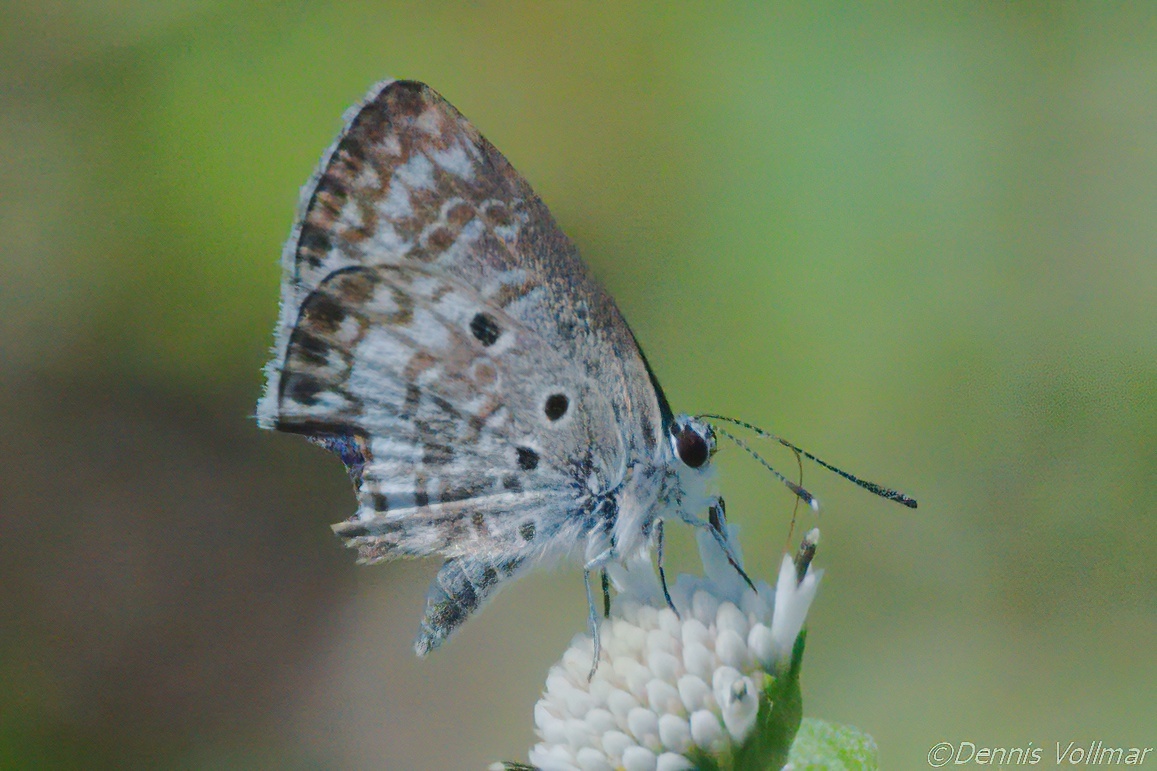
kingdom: Animalia
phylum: Arthropoda
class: Insecta
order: Lepidoptera
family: Lycaenidae
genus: Cyclargus
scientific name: Cyclargus thomasi
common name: Miami blue
